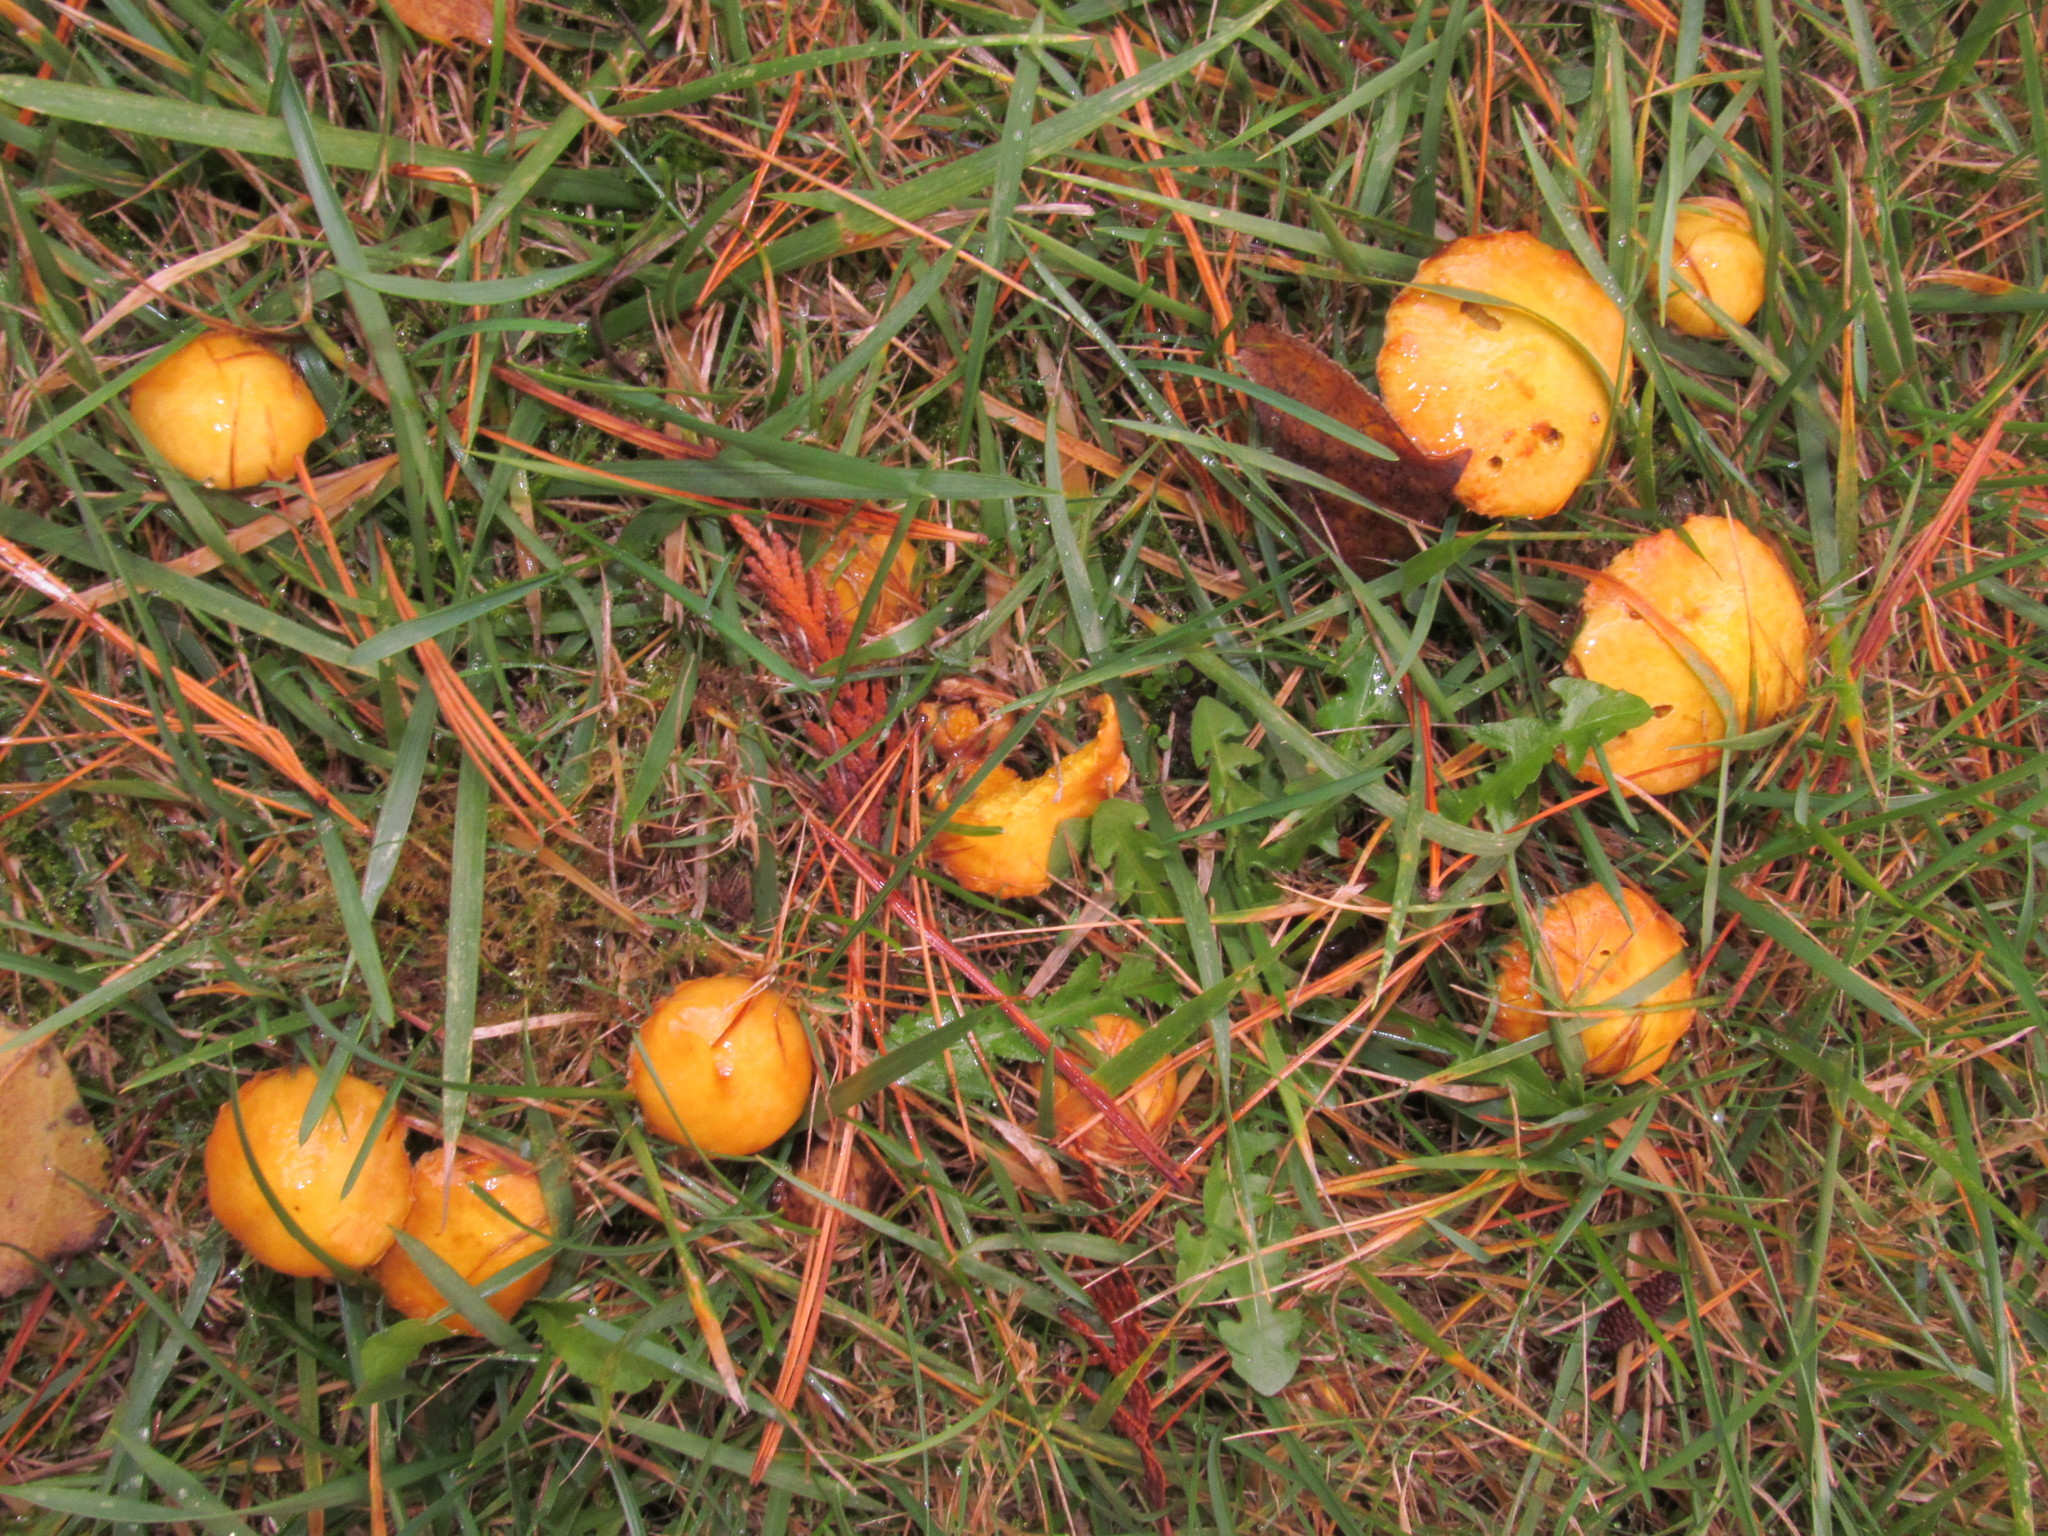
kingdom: Fungi
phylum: Basidiomycota
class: Agaricomycetes
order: Boletales
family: Suillaceae
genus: Suillus
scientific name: Suillus americanus
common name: Chicken fat mushroom
